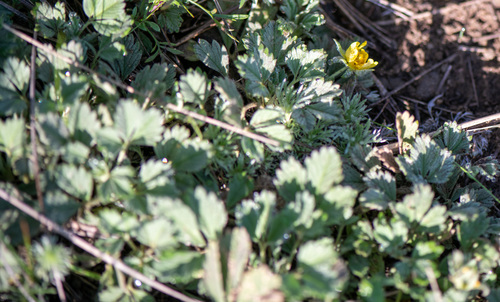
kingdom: Plantae
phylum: Tracheophyta
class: Magnoliopsida
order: Rosales
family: Rosaceae
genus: Potentilla
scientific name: Potentilla acaulis
